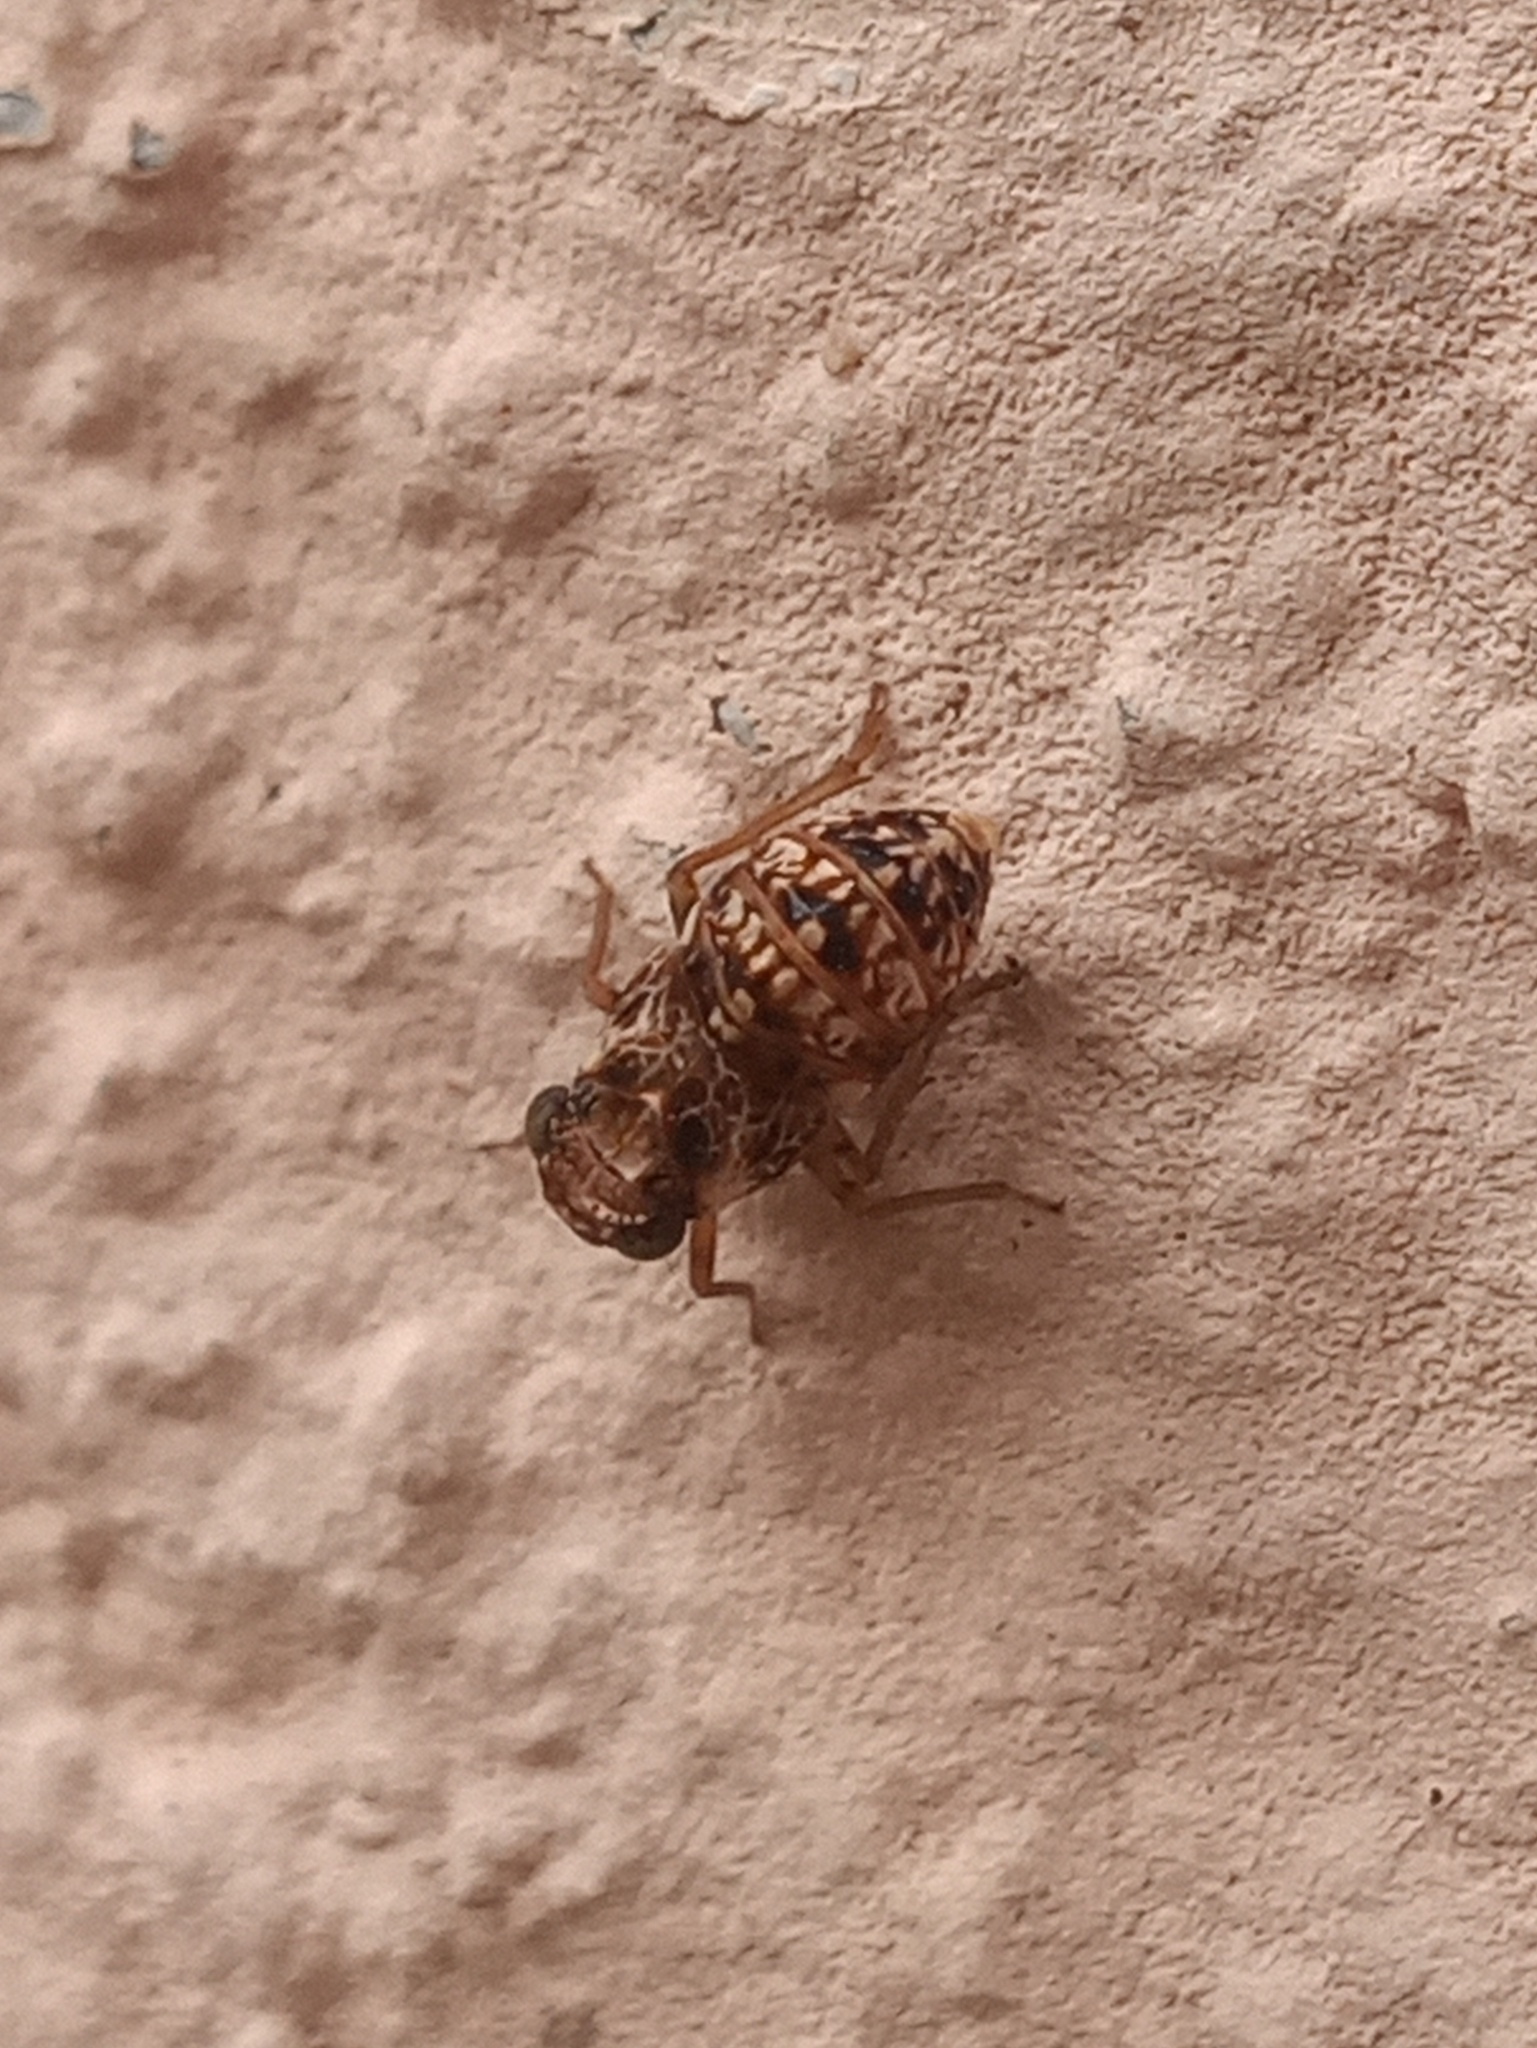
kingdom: Animalia
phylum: Arthropoda
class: Insecta
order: Hemiptera
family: Caliscelidae
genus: Bruchomorpha
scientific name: Bruchomorpha decorata
